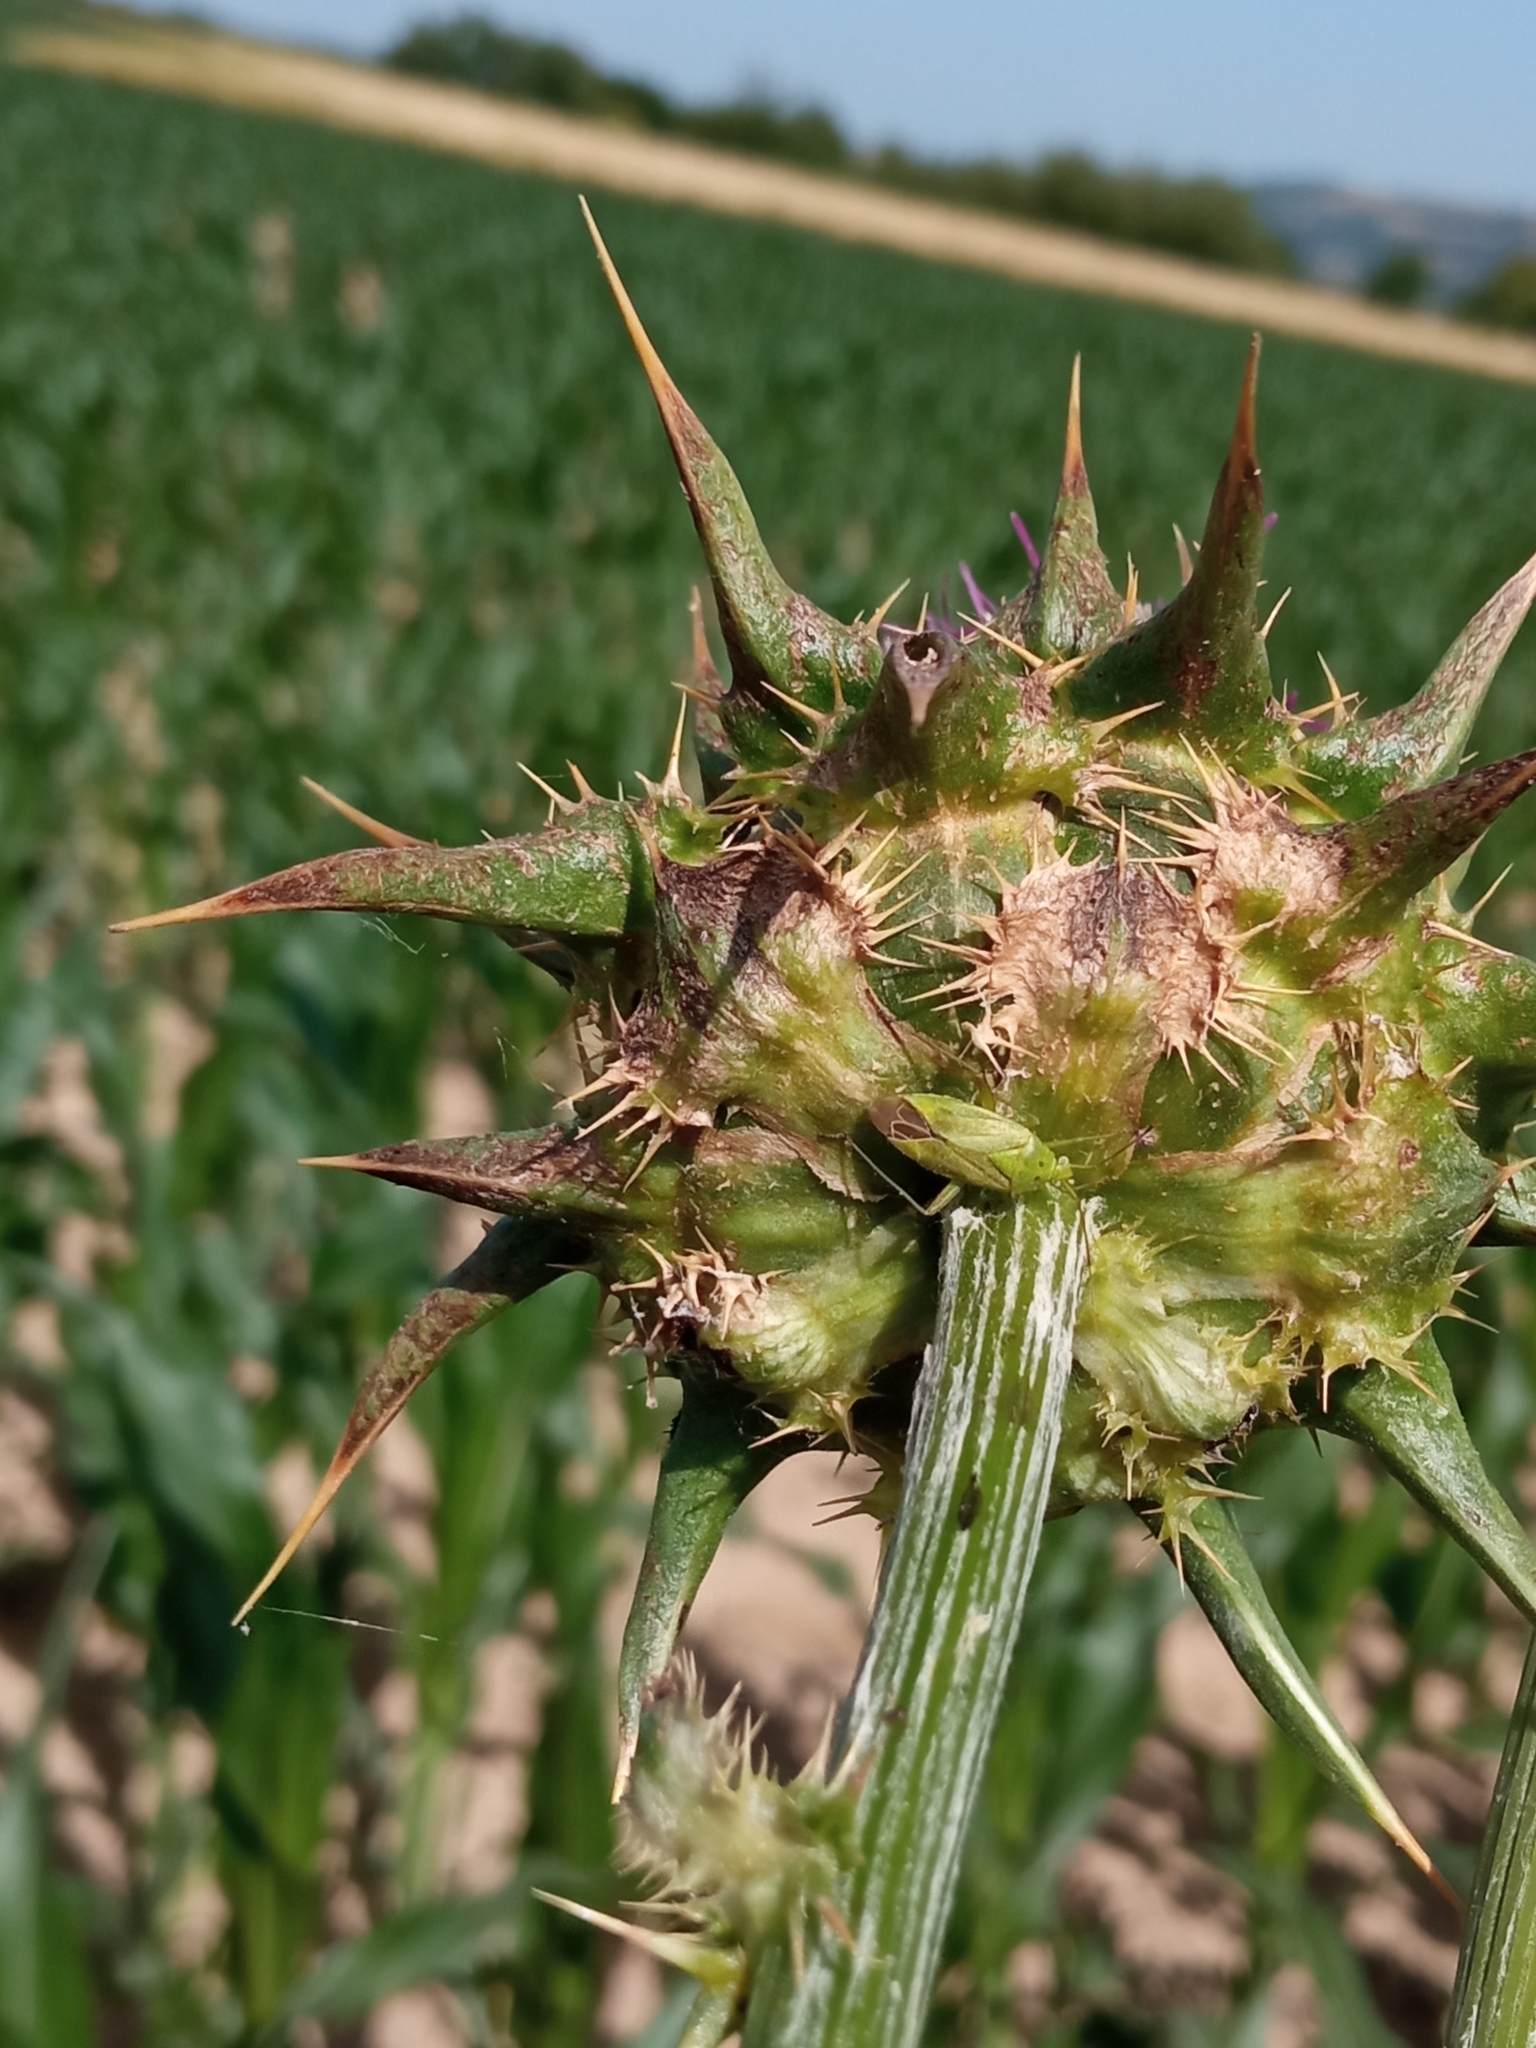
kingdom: Animalia
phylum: Arthropoda
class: Insecta
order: Hemiptera
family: Miridae
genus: Closterotomus
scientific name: Closterotomus norvegicus
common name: Plant bug
